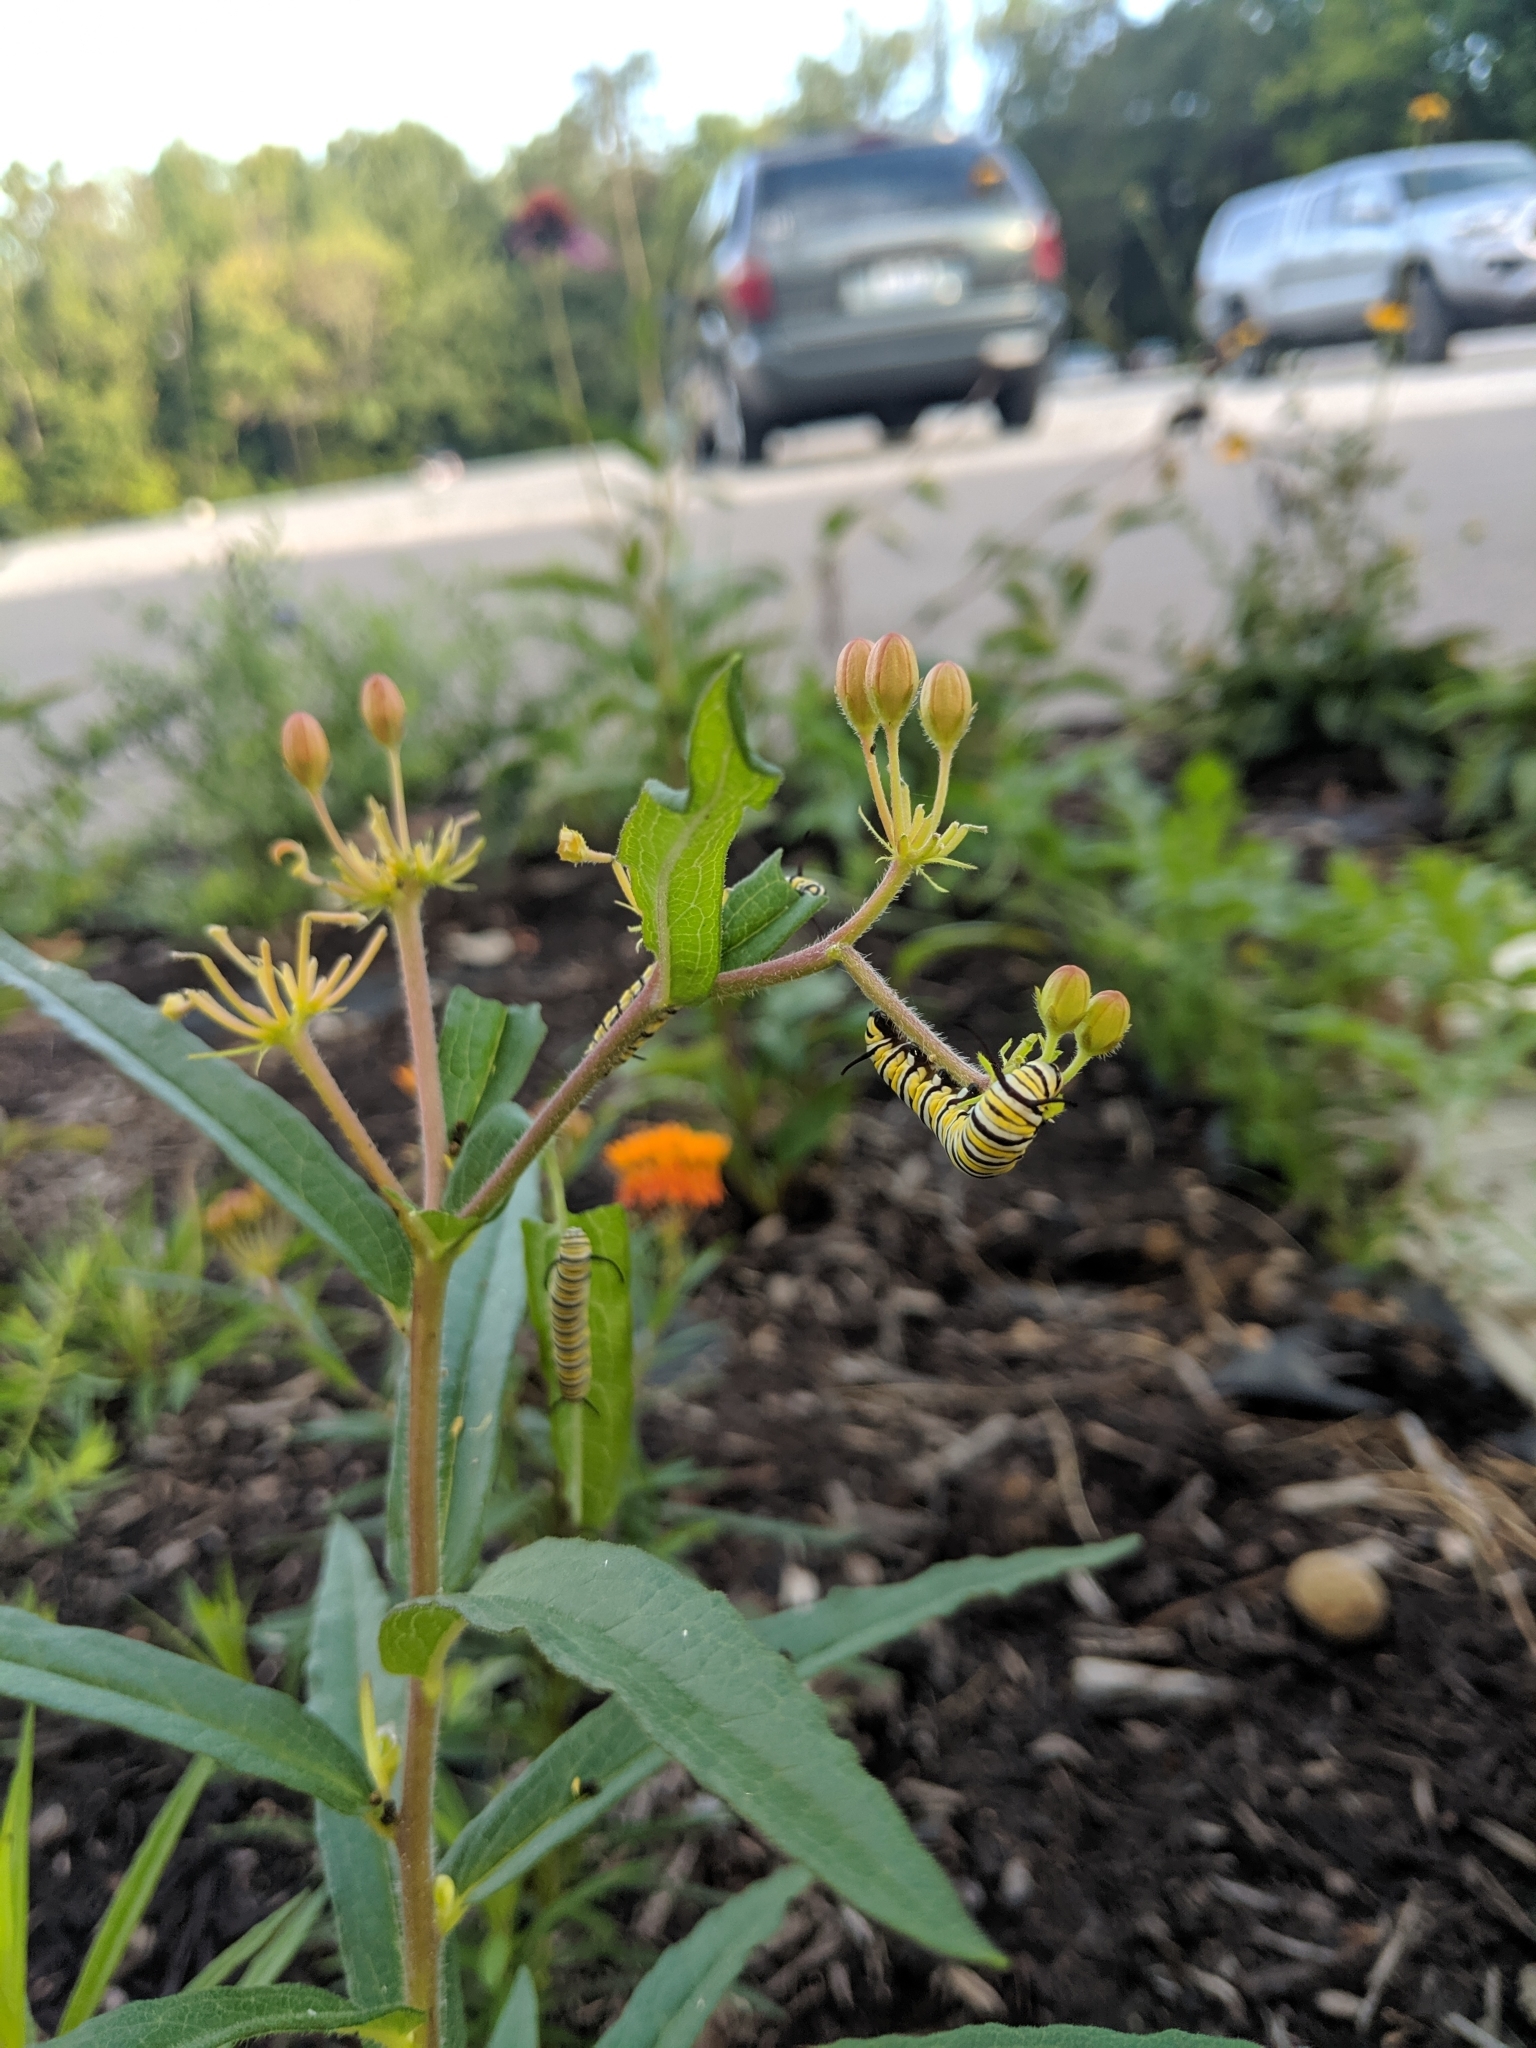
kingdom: Animalia
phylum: Arthropoda
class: Insecta
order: Lepidoptera
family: Nymphalidae
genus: Danaus
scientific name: Danaus plexippus
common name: Monarch
